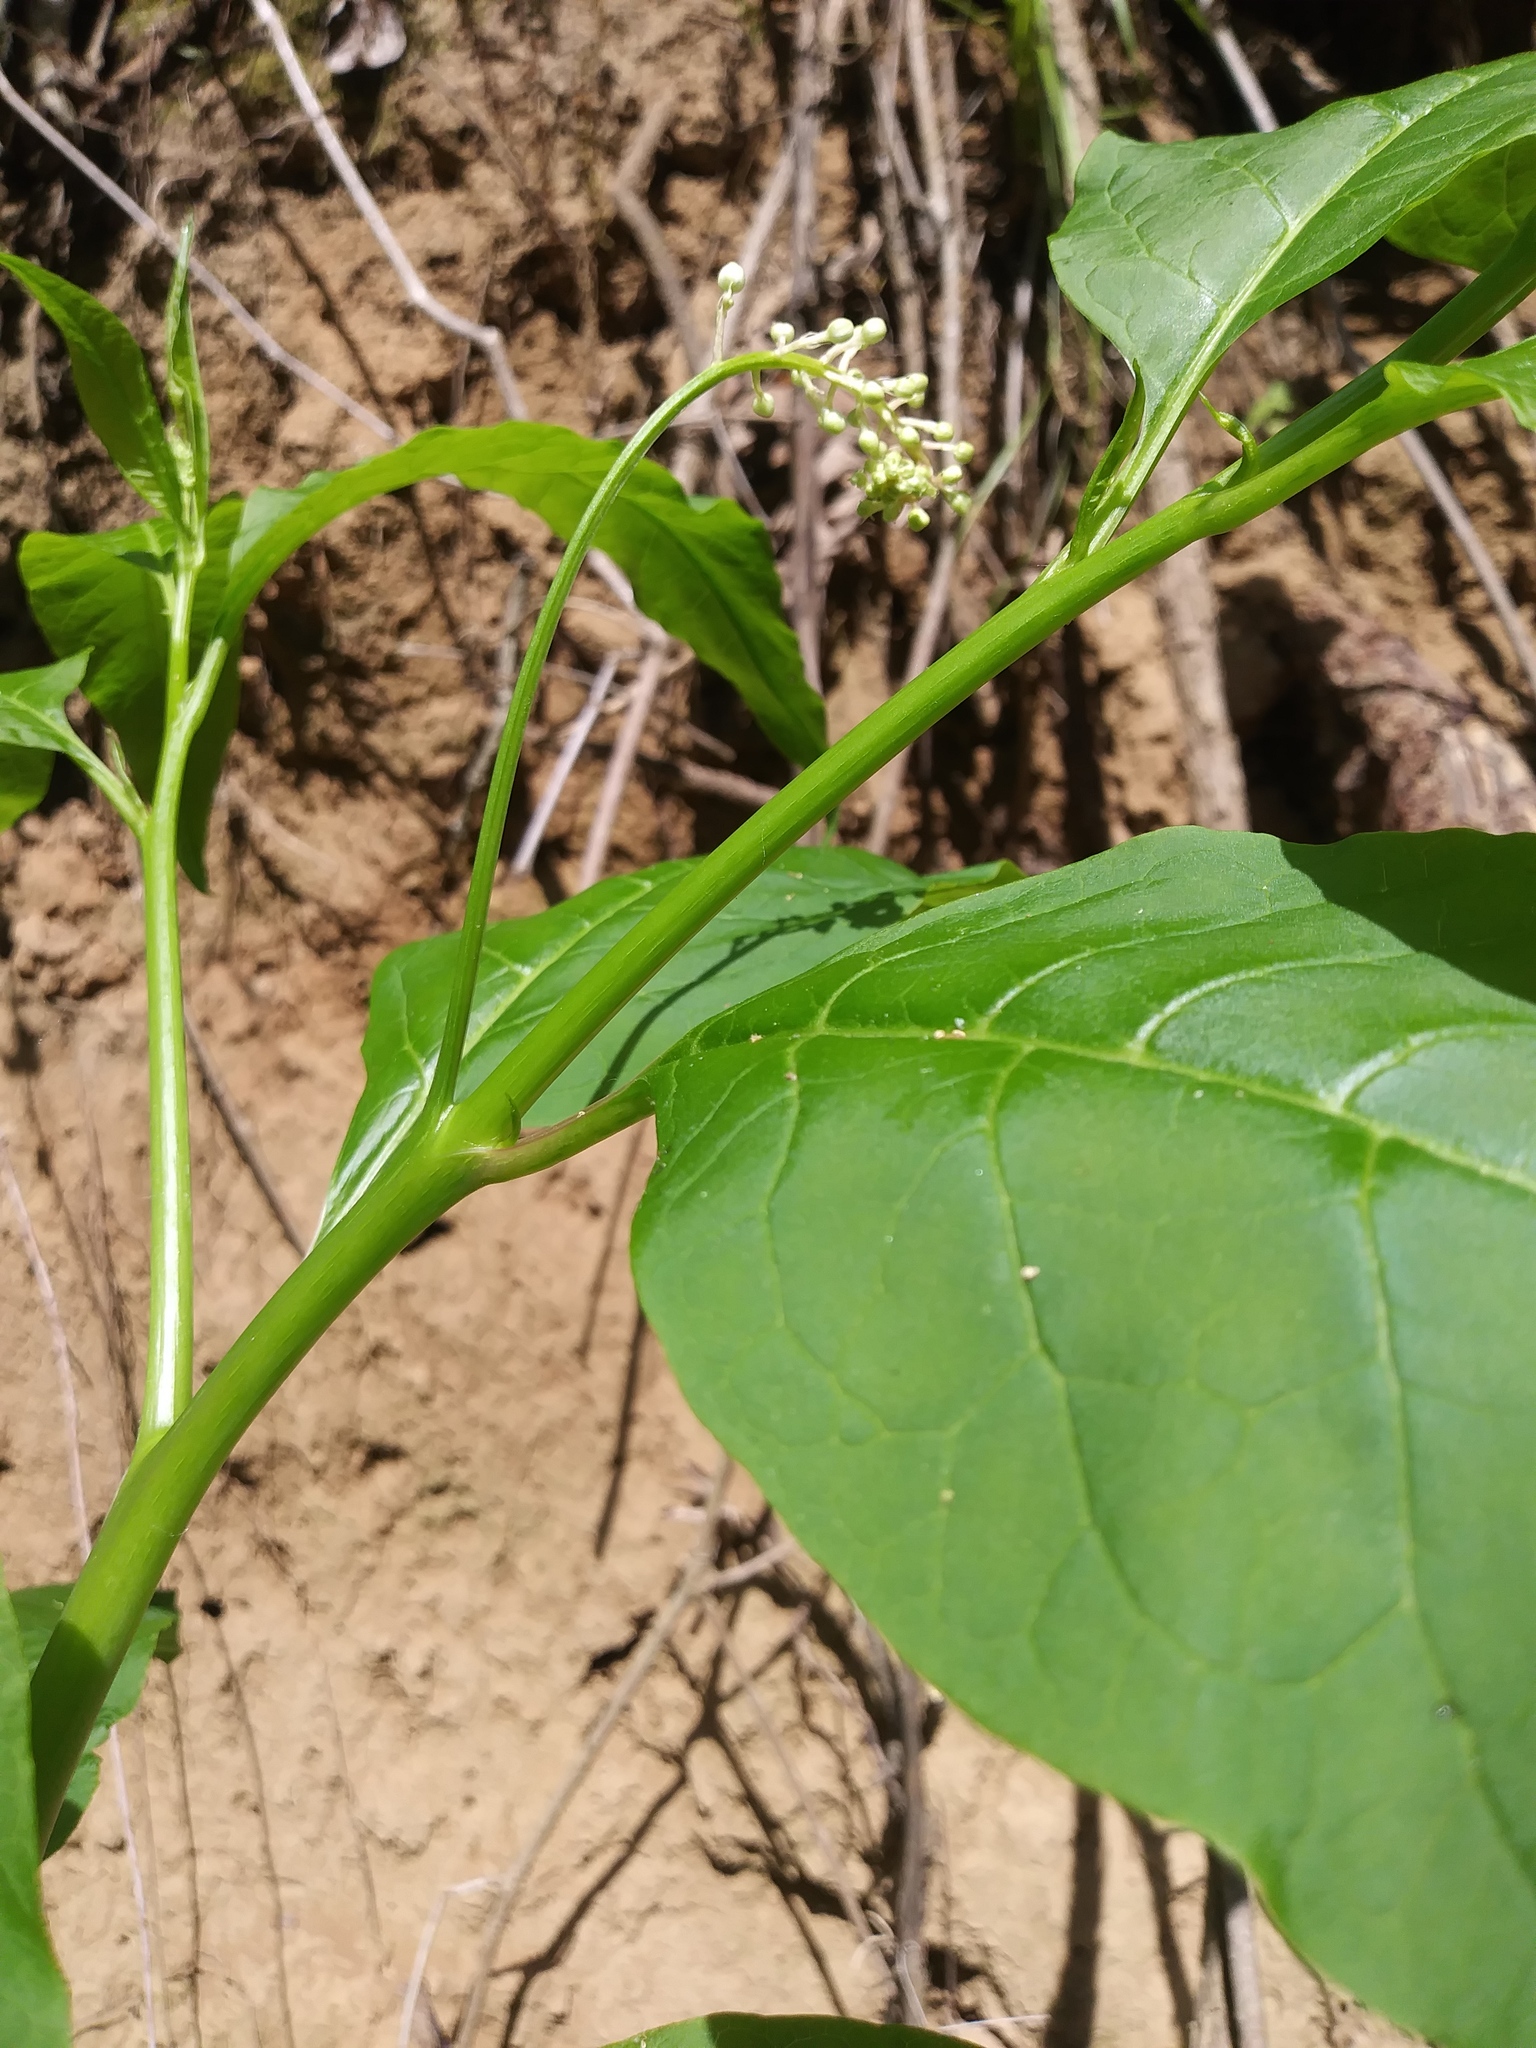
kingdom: Plantae
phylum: Tracheophyta
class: Magnoliopsida
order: Caryophyllales
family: Phytolaccaceae
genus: Phytolacca
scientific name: Phytolacca americana
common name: American pokeweed
